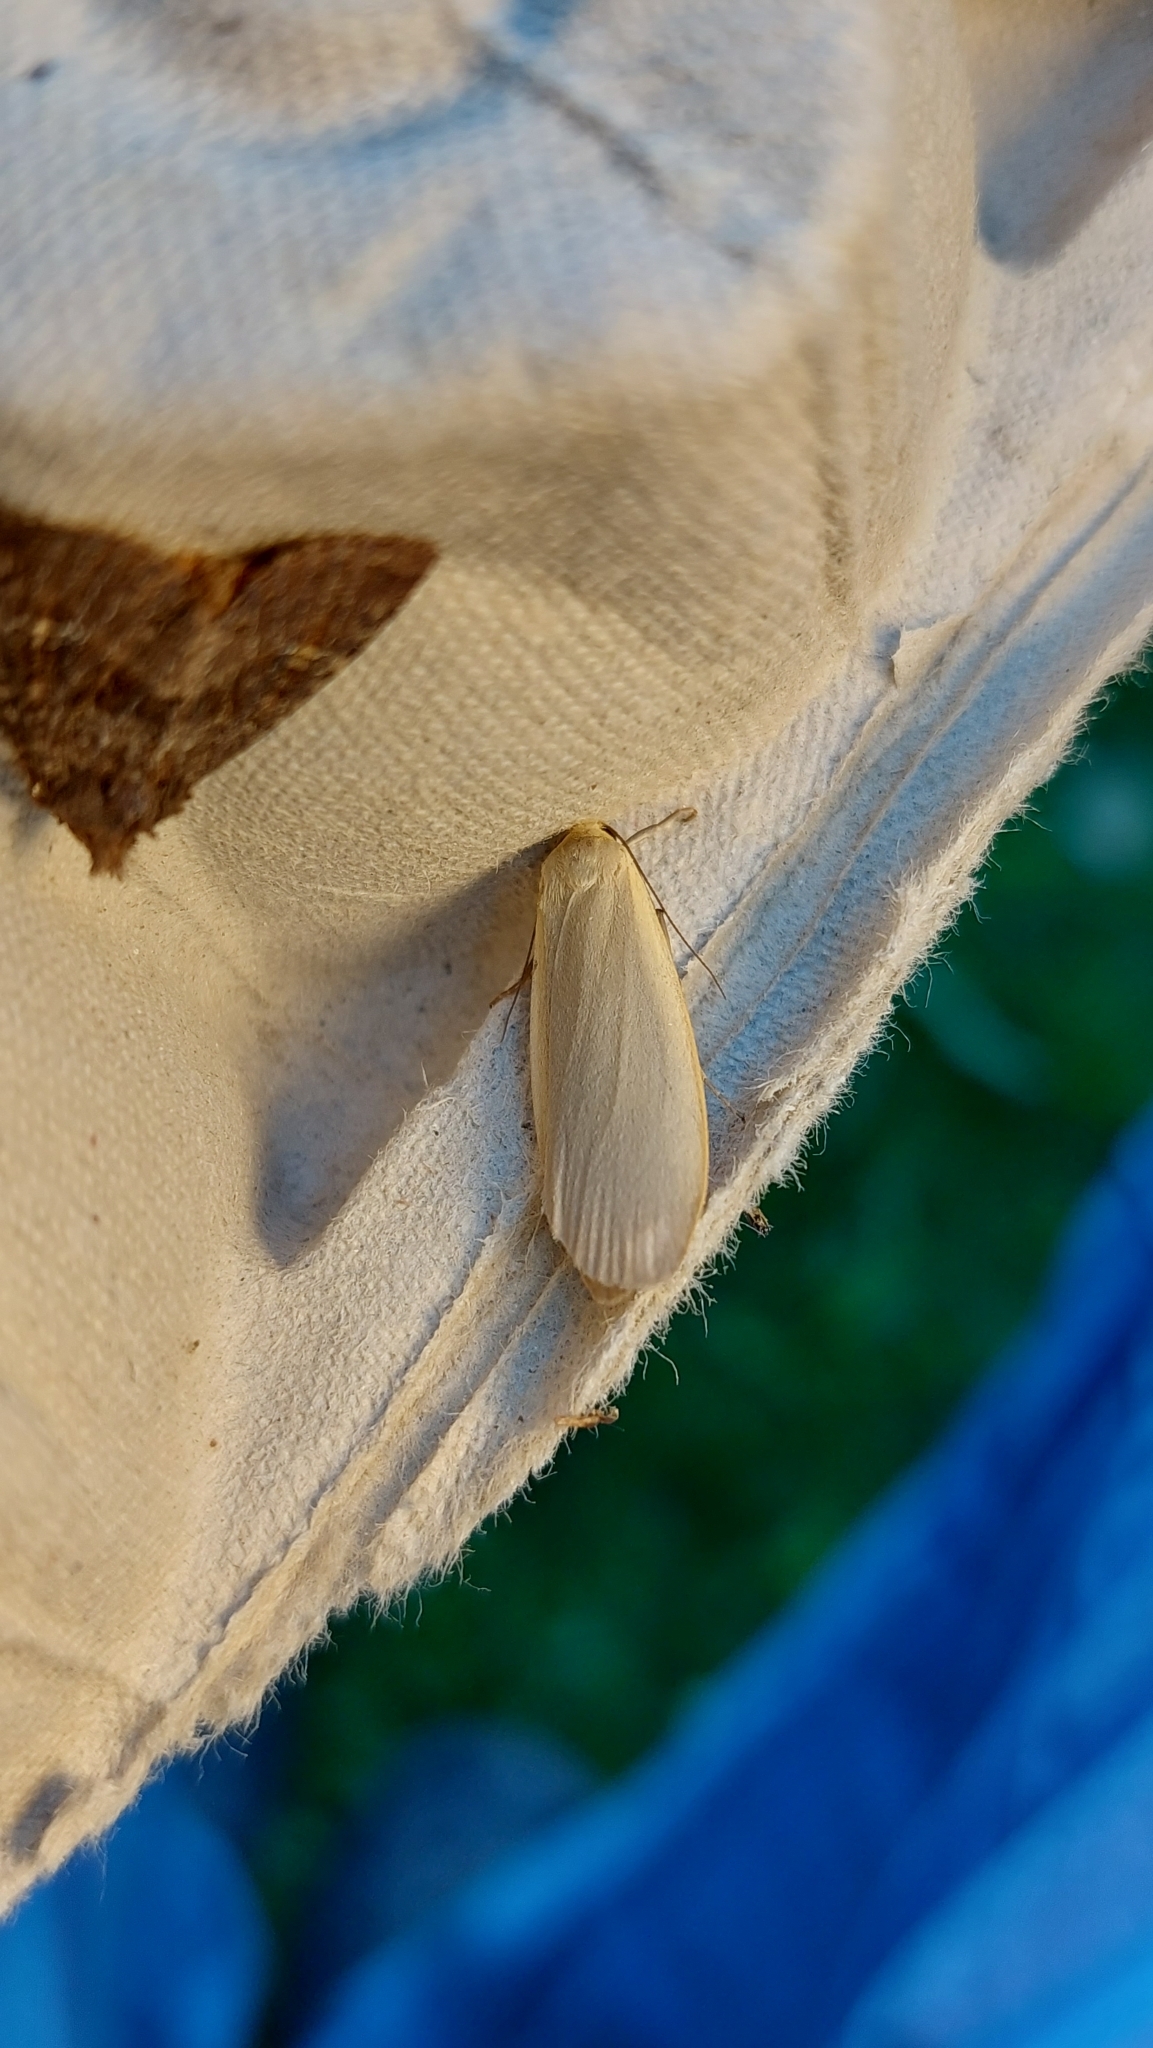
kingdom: Animalia
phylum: Arthropoda
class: Insecta
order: Lepidoptera
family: Erebidae
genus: Collita
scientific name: Collita griseola
